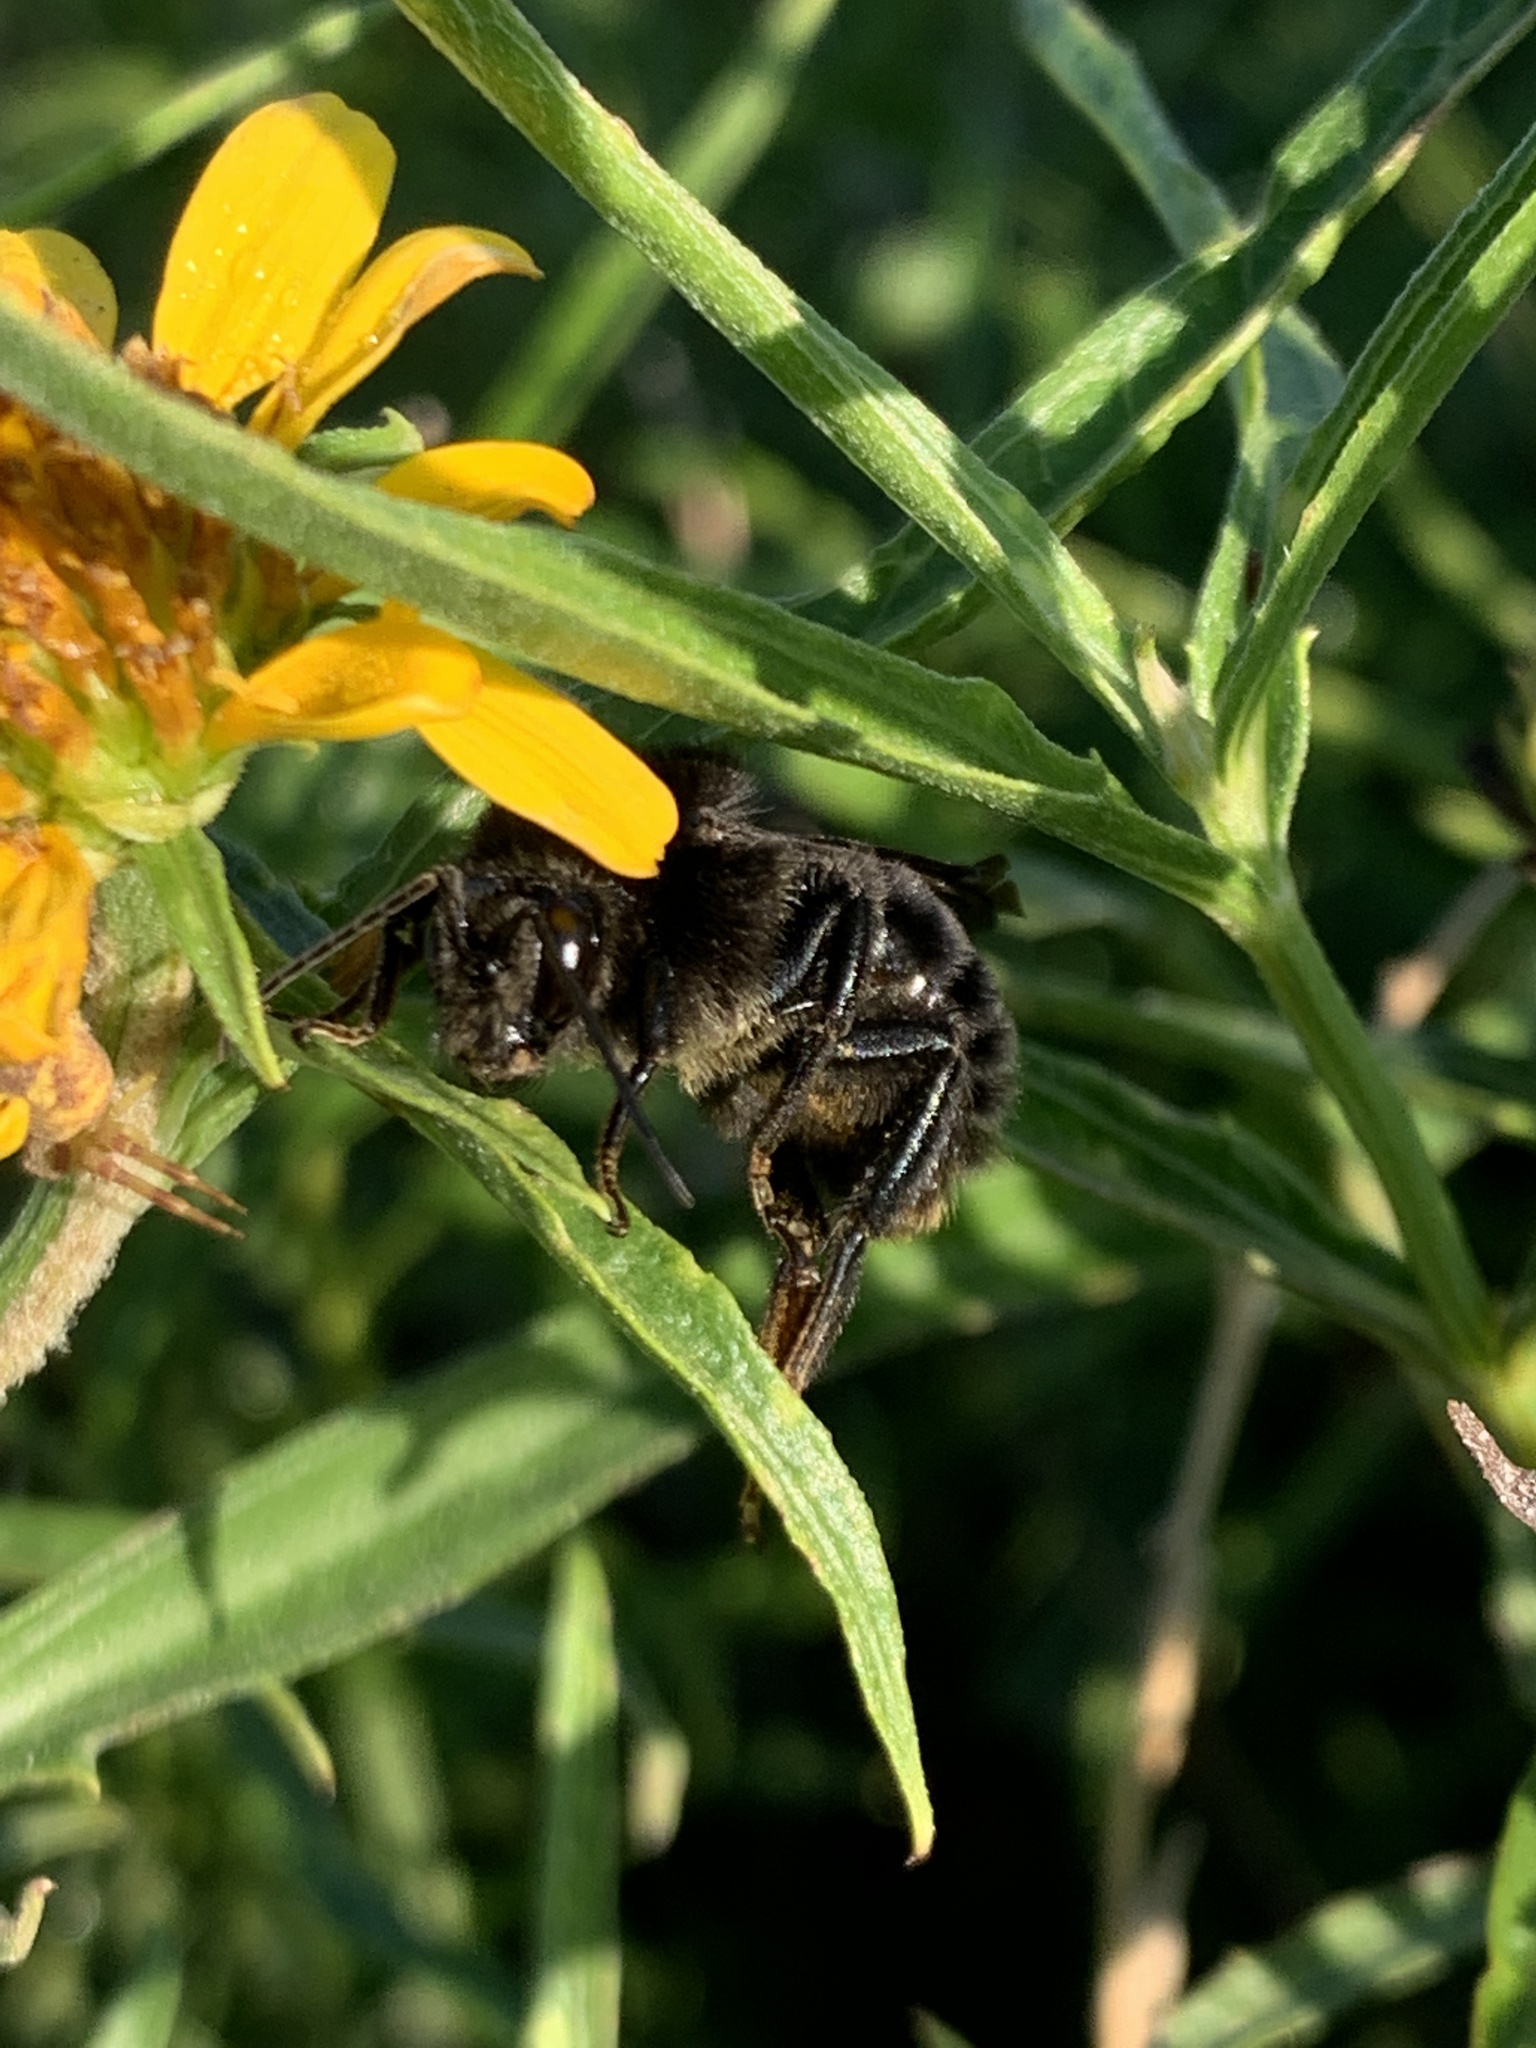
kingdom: Animalia
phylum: Arthropoda
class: Insecta
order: Hymenoptera
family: Apidae
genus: Bombus
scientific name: Bombus pauloensis
